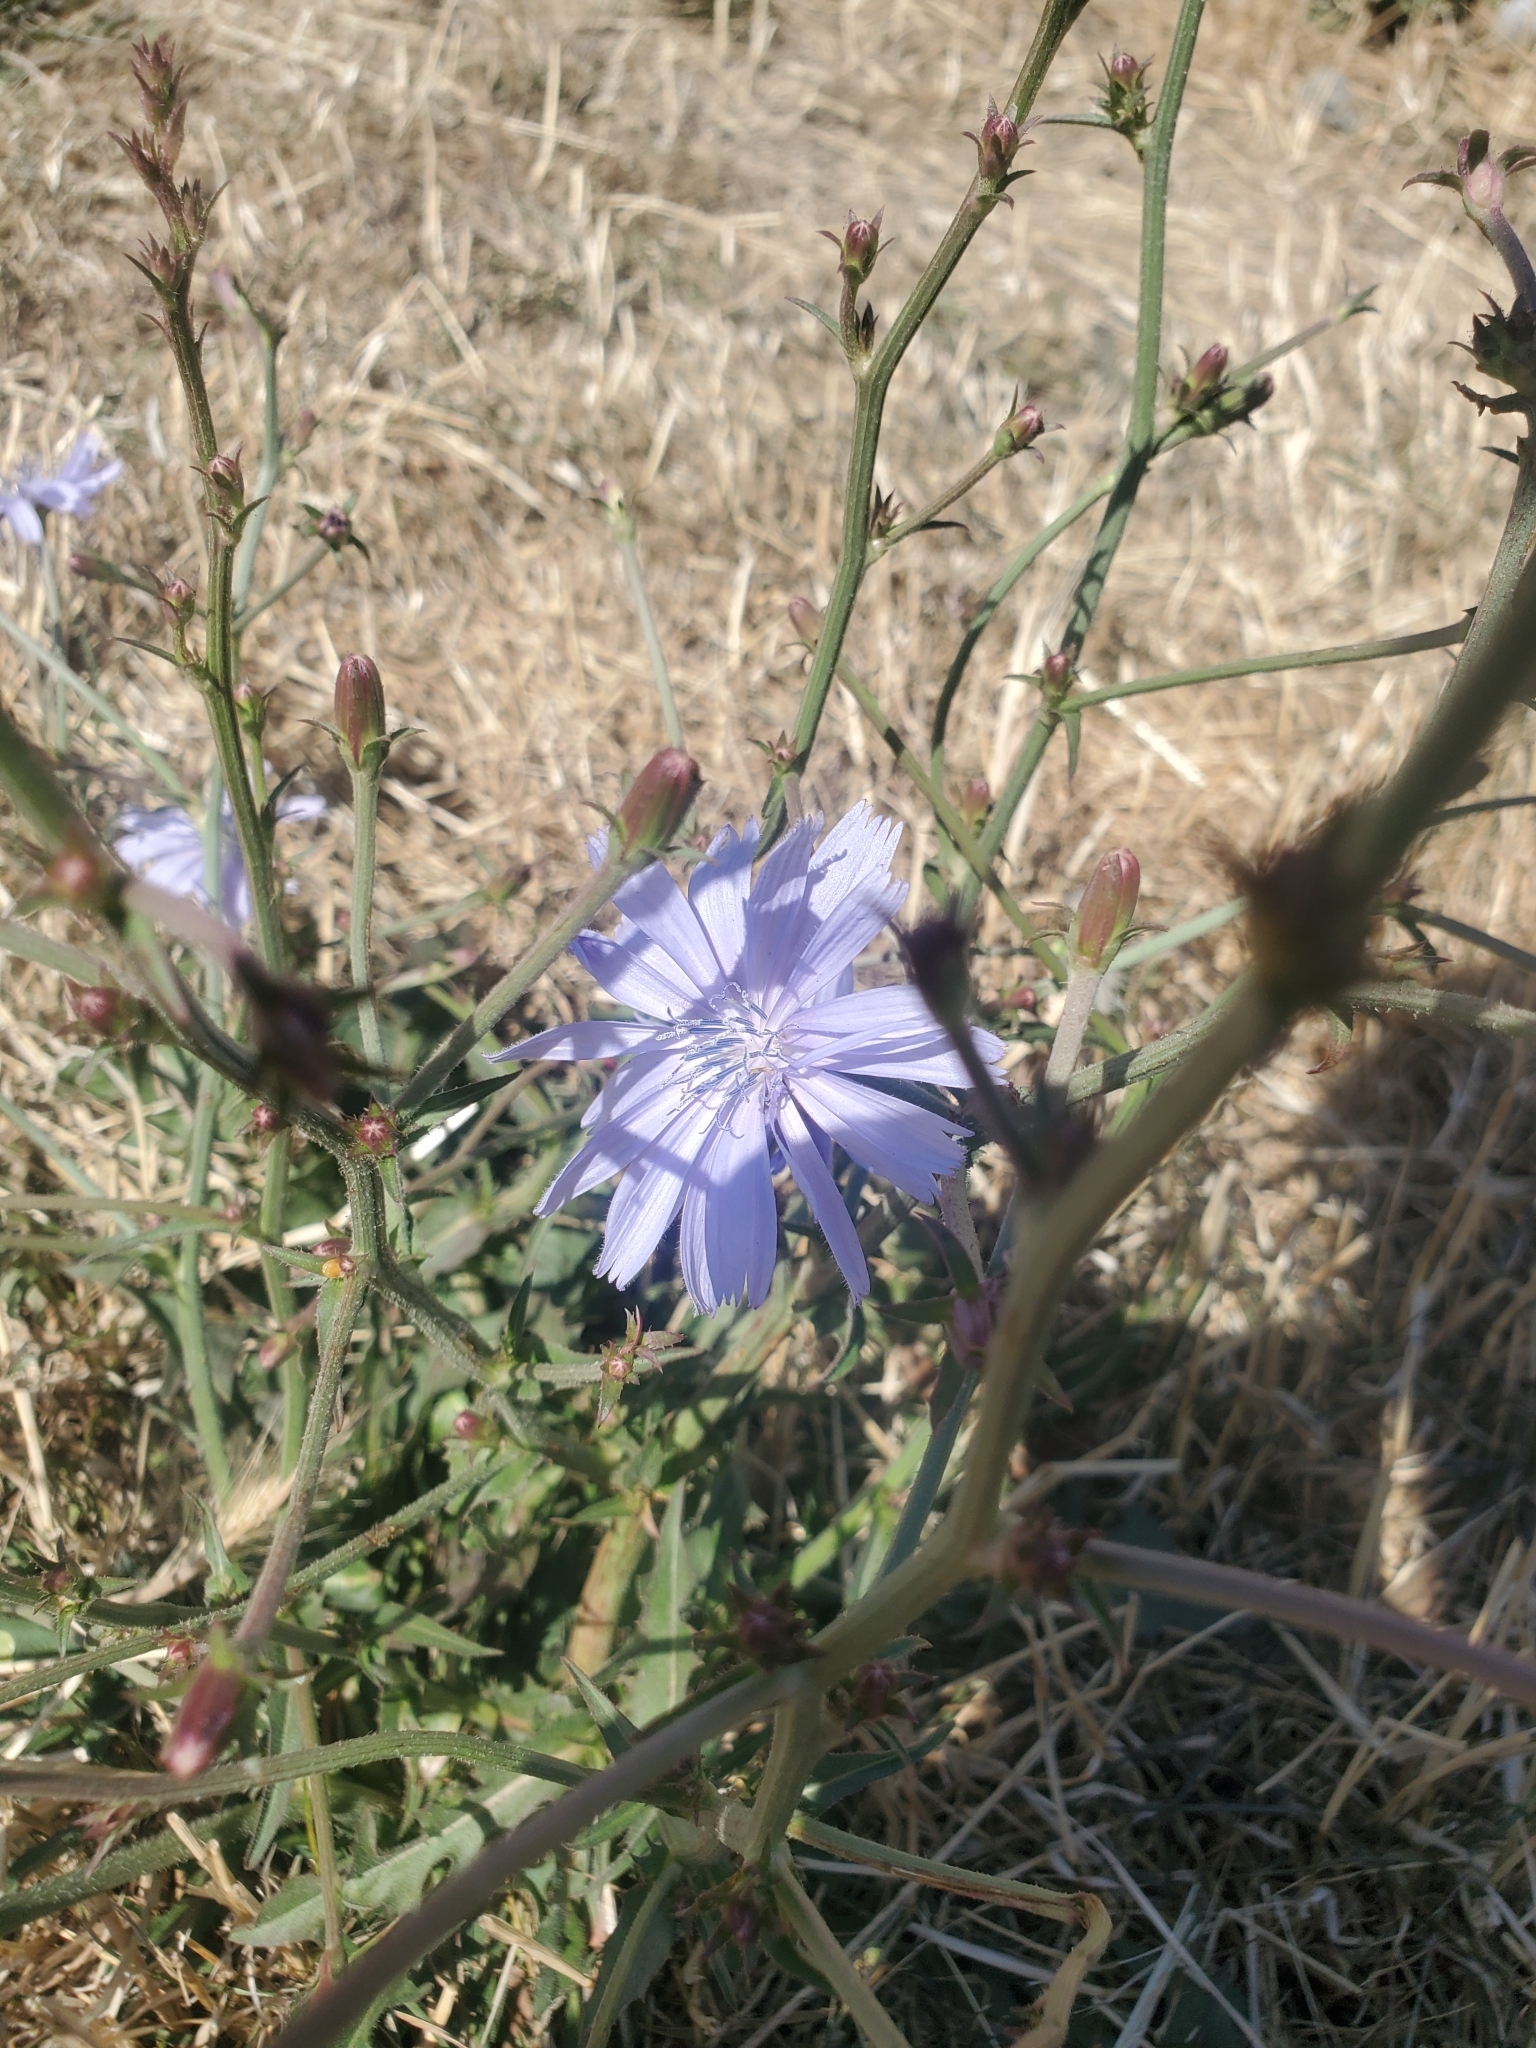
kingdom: Plantae
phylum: Tracheophyta
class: Magnoliopsida
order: Asterales
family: Asteraceae
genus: Cichorium
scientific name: Cichorium intybus
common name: Chicory
